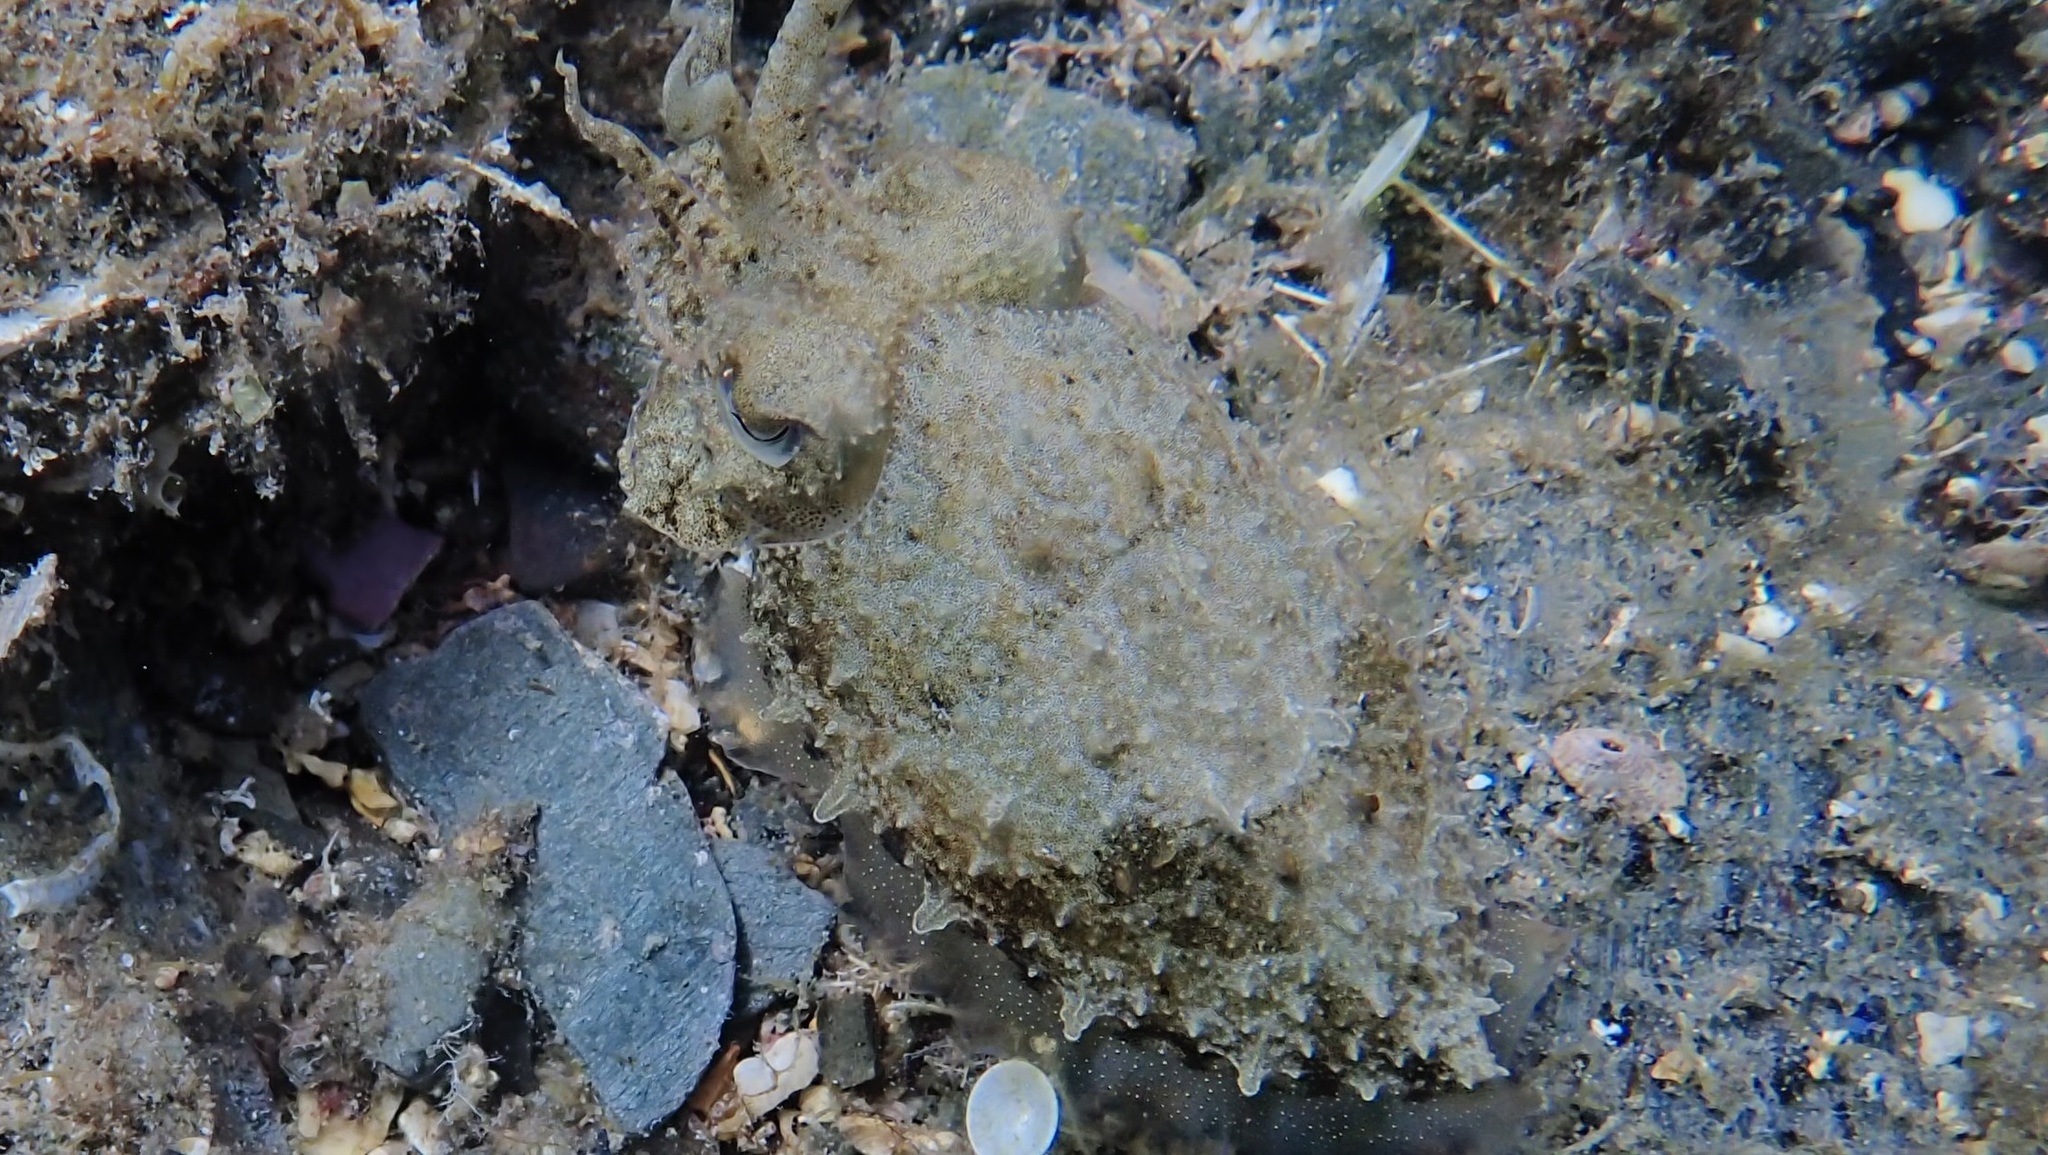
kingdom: Animalia
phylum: Mollusca
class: Cephalopoda
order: Sepiida
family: Sepiidae
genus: Sepia
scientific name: Sepia officinalis
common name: Common cuttlefish
